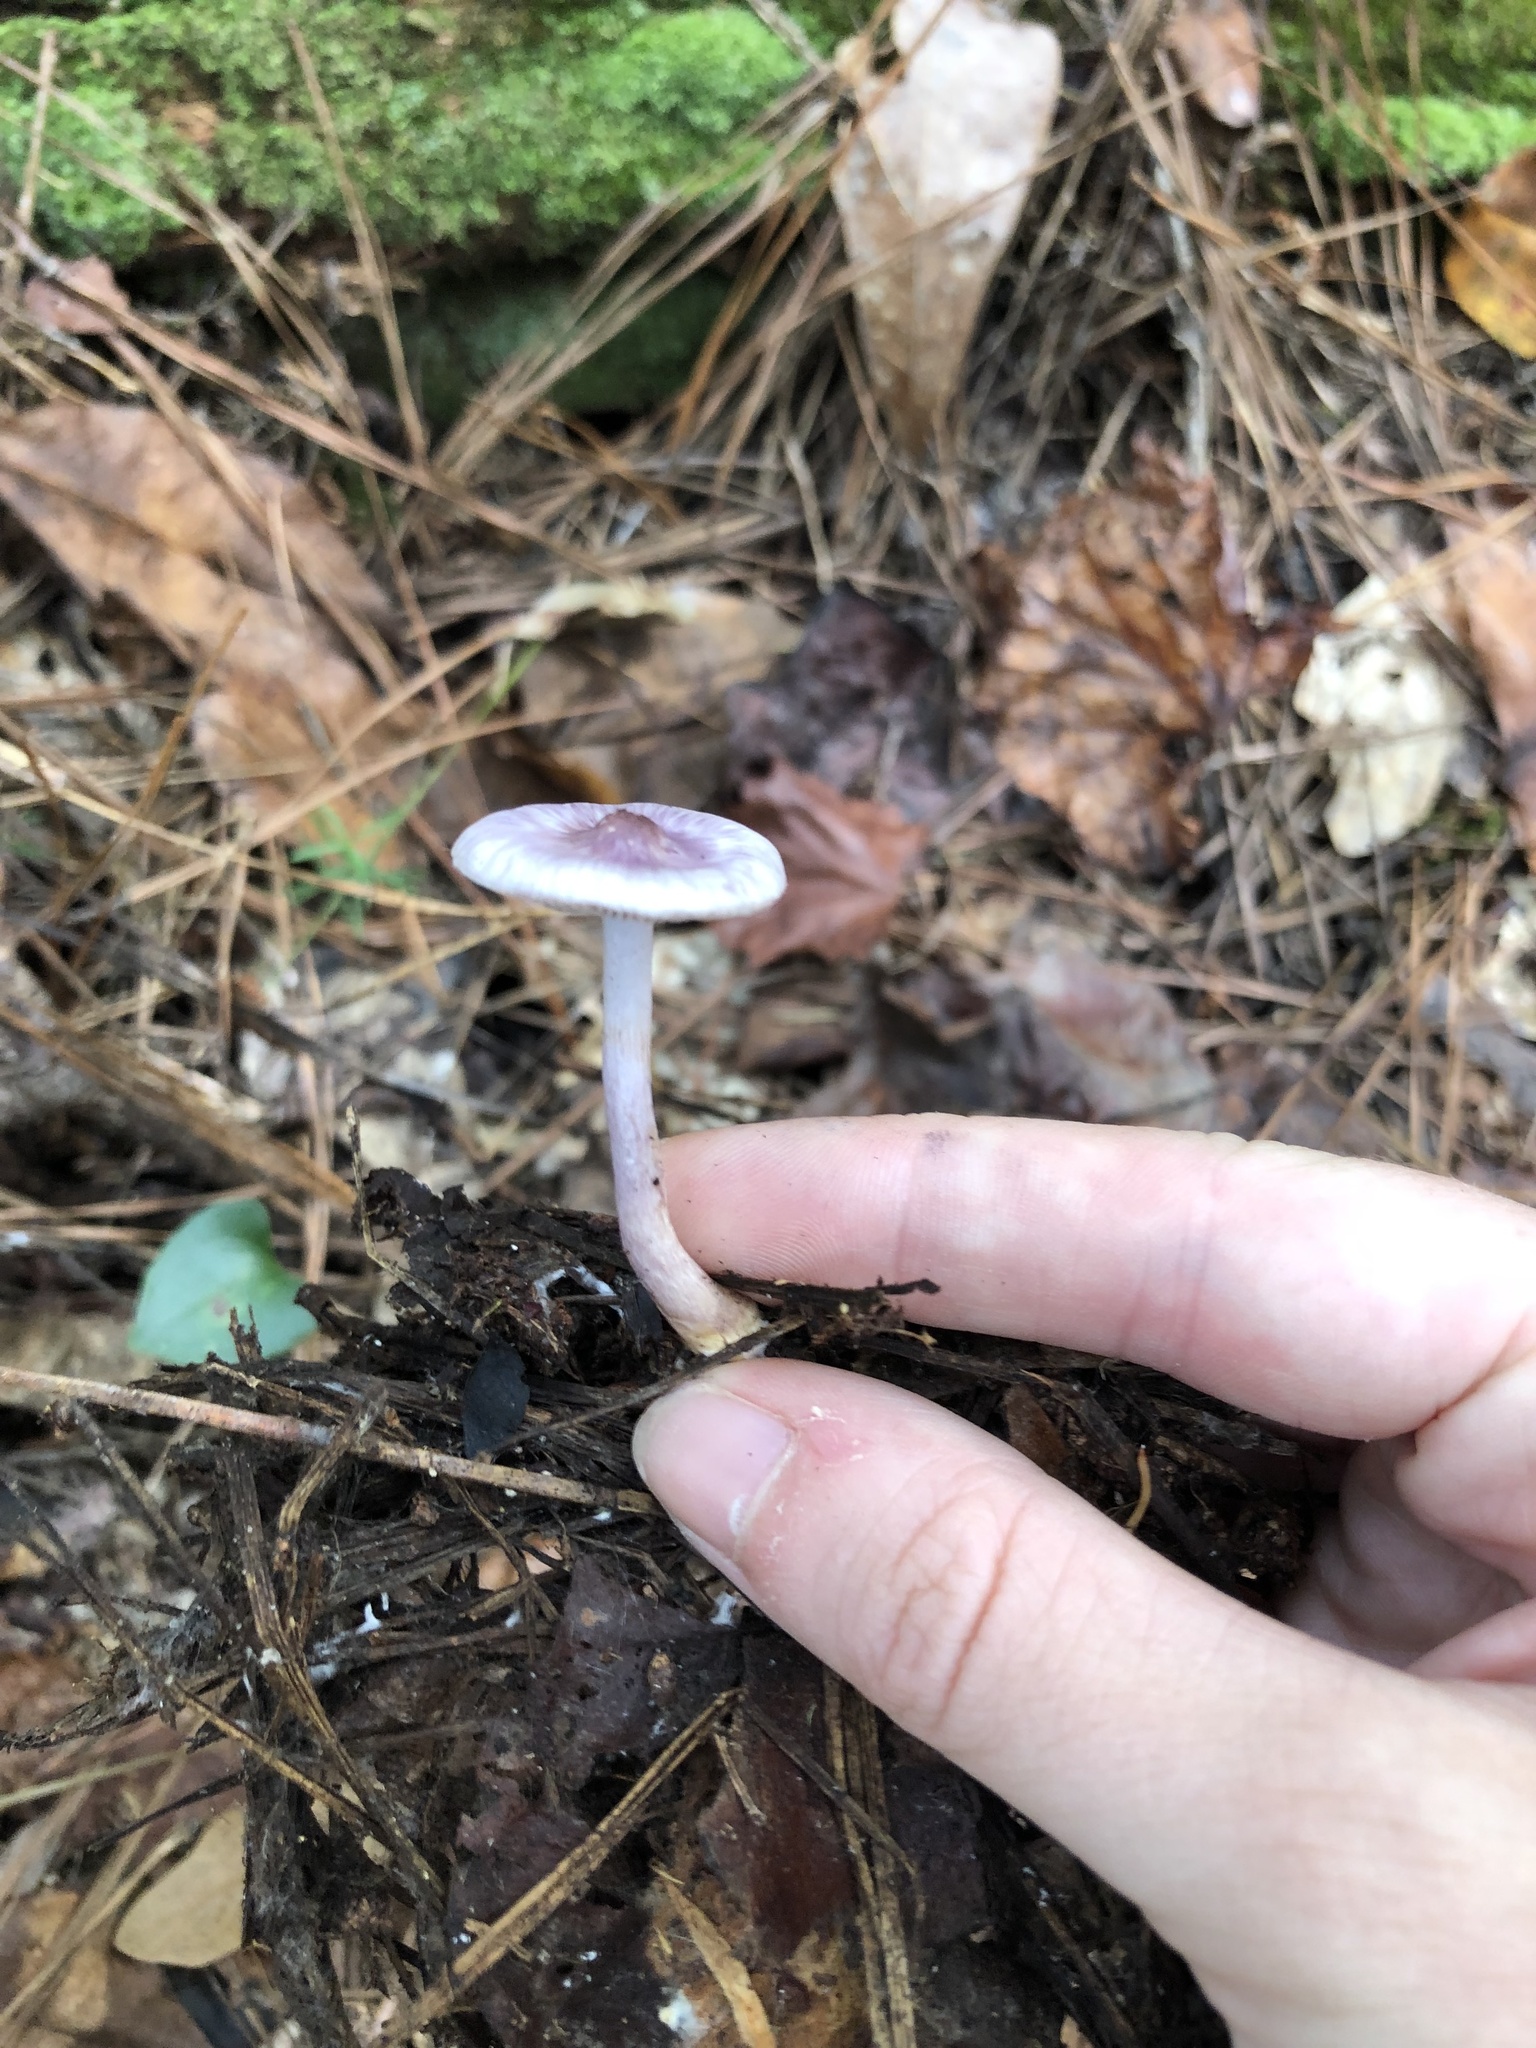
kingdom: Fungi
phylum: Basidiomycota
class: Agaricomycetes
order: Agaricales
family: Inocybaceae
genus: Inocybe
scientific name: Inocybe geophylla
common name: White fibrecap
